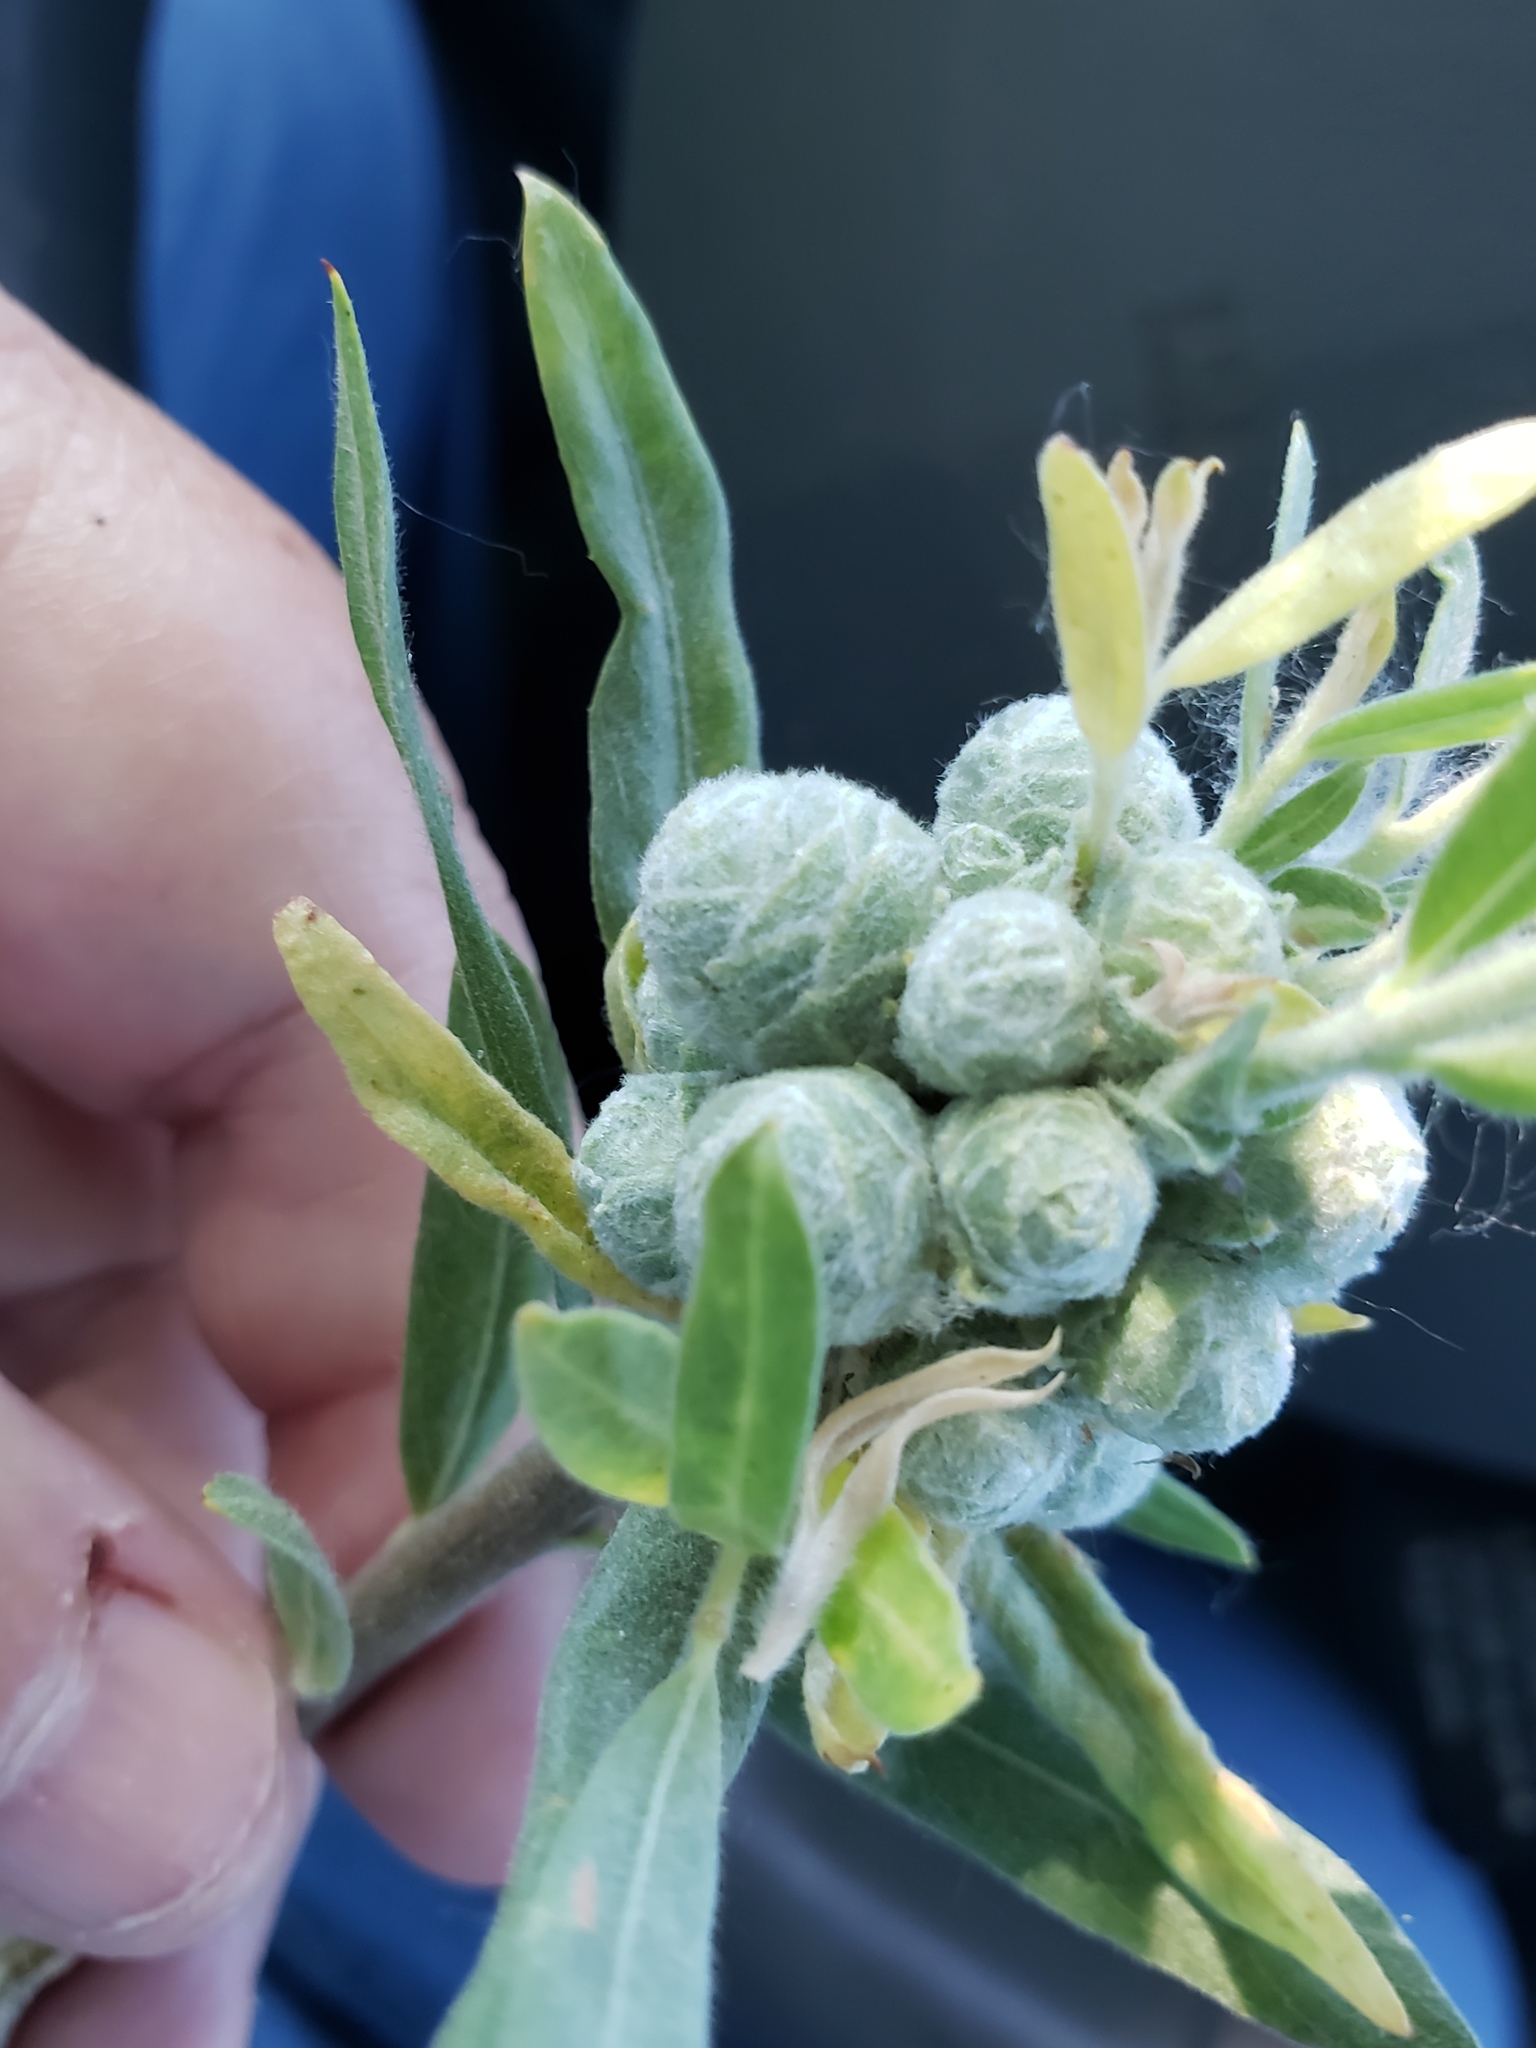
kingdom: Animalia
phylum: Arthropoda
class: Insecta
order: Diptera
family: Cecidomyiidae
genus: Rabdophaga
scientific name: Rabdophaga strobiloides
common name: Willow pinecone gall midge
